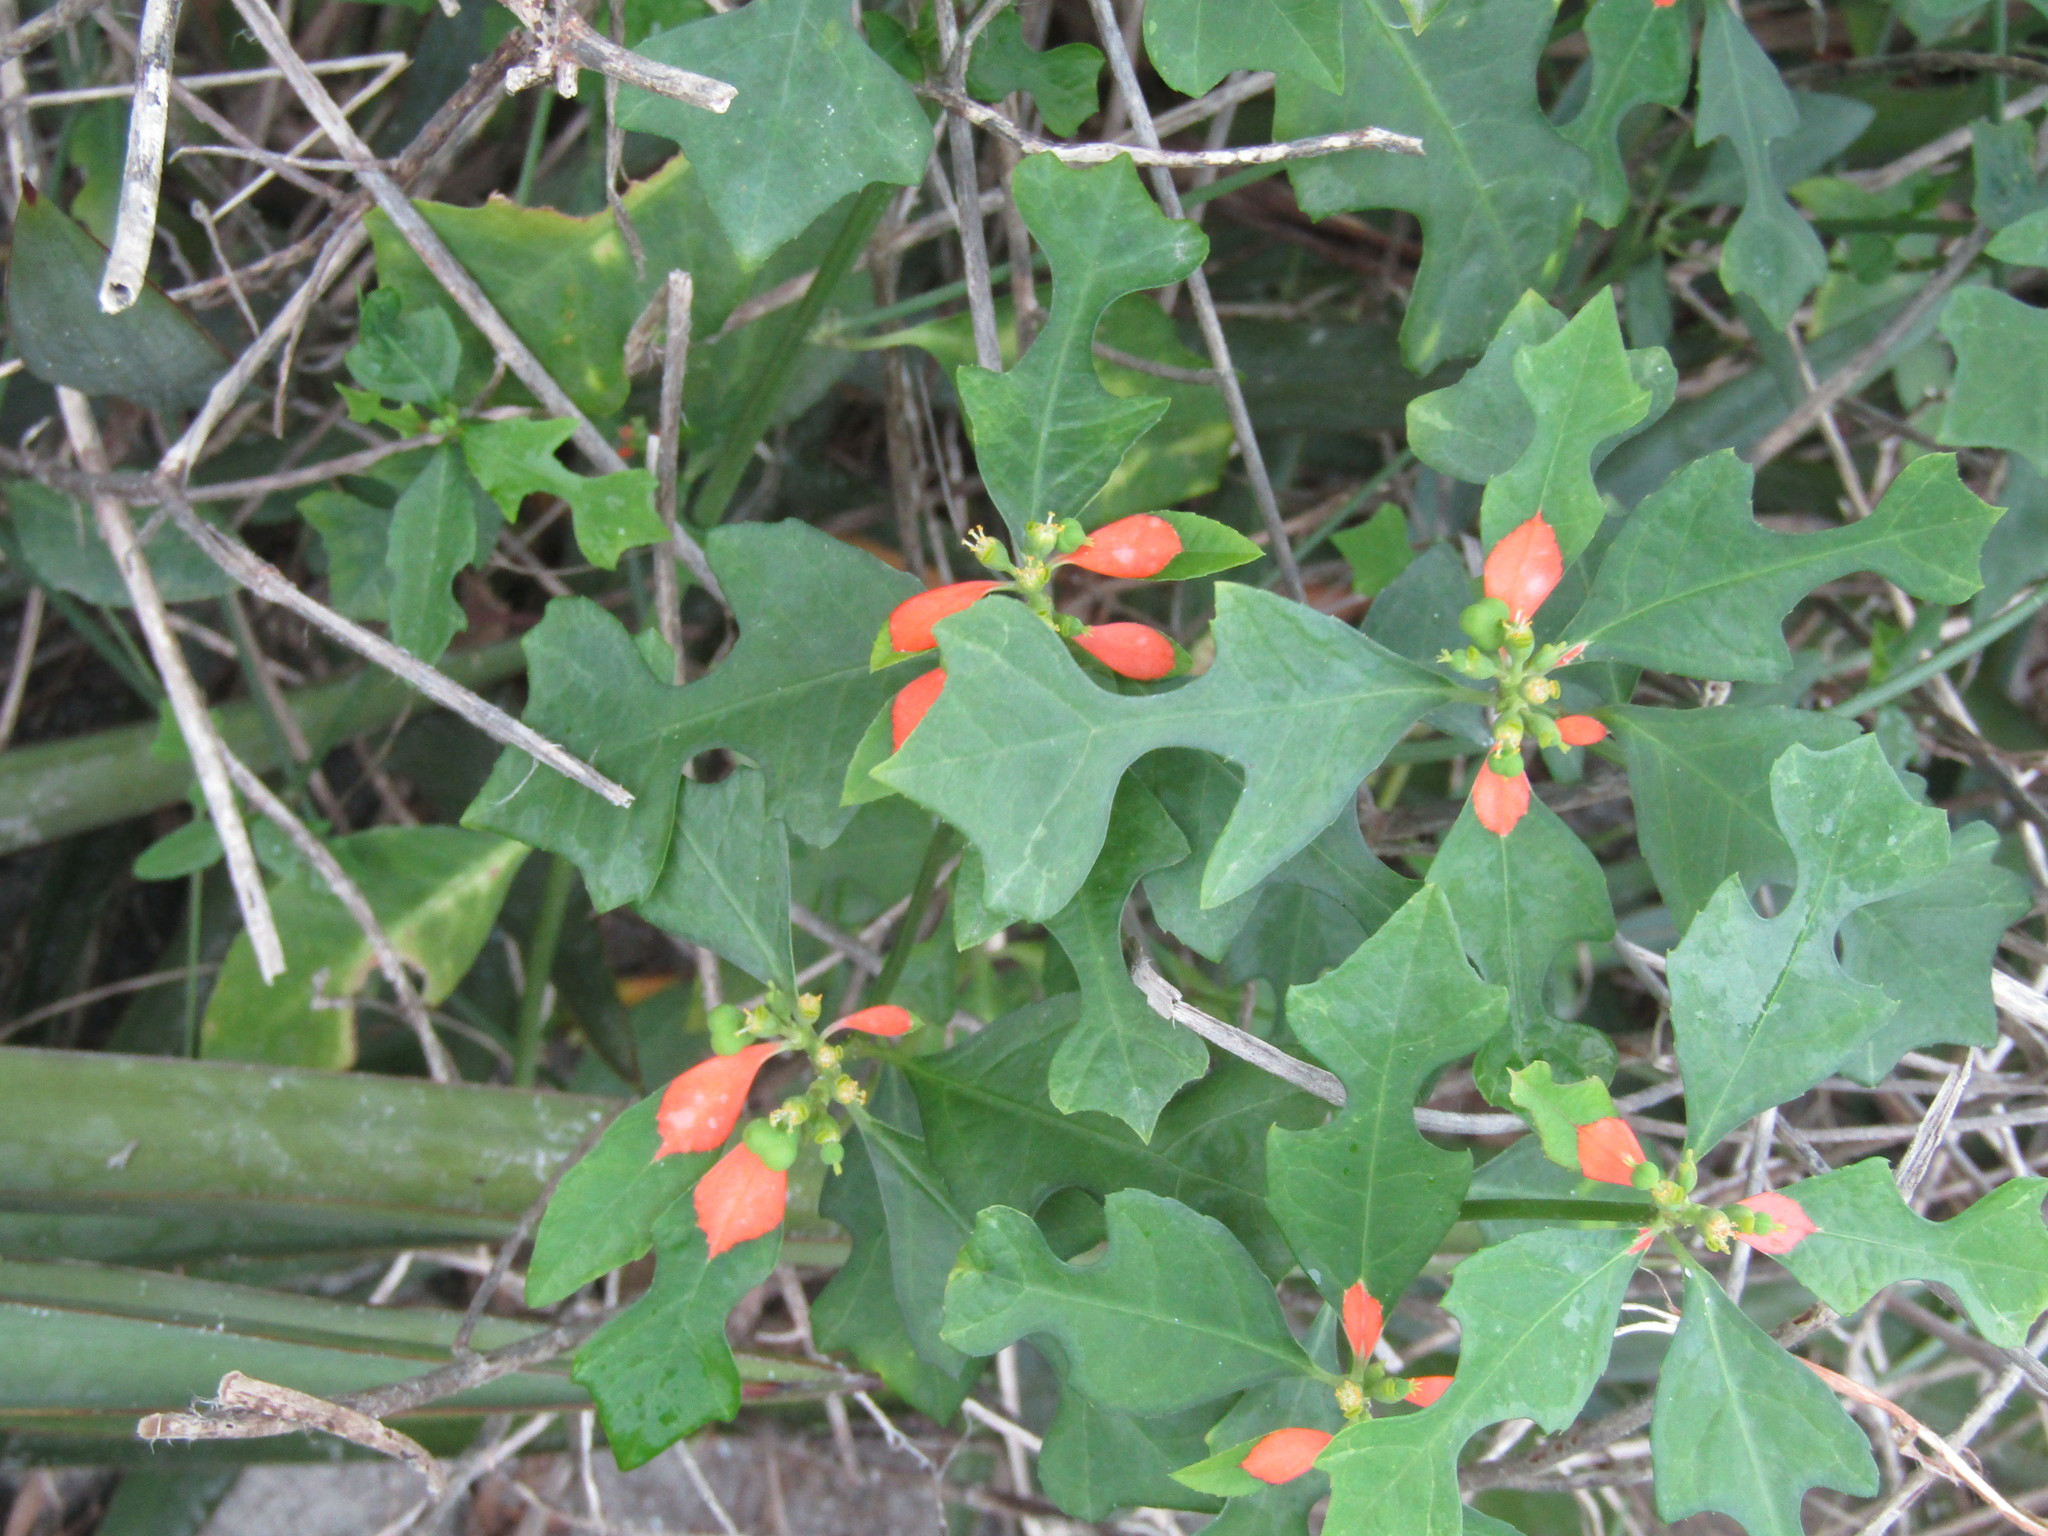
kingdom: Plantae
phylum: Tracheophyta
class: Magnoliopsida
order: Malpighiales
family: Euphorbiaceae
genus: Euphorbia
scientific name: Euphorbia heterophylla
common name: Mexican fireplant
